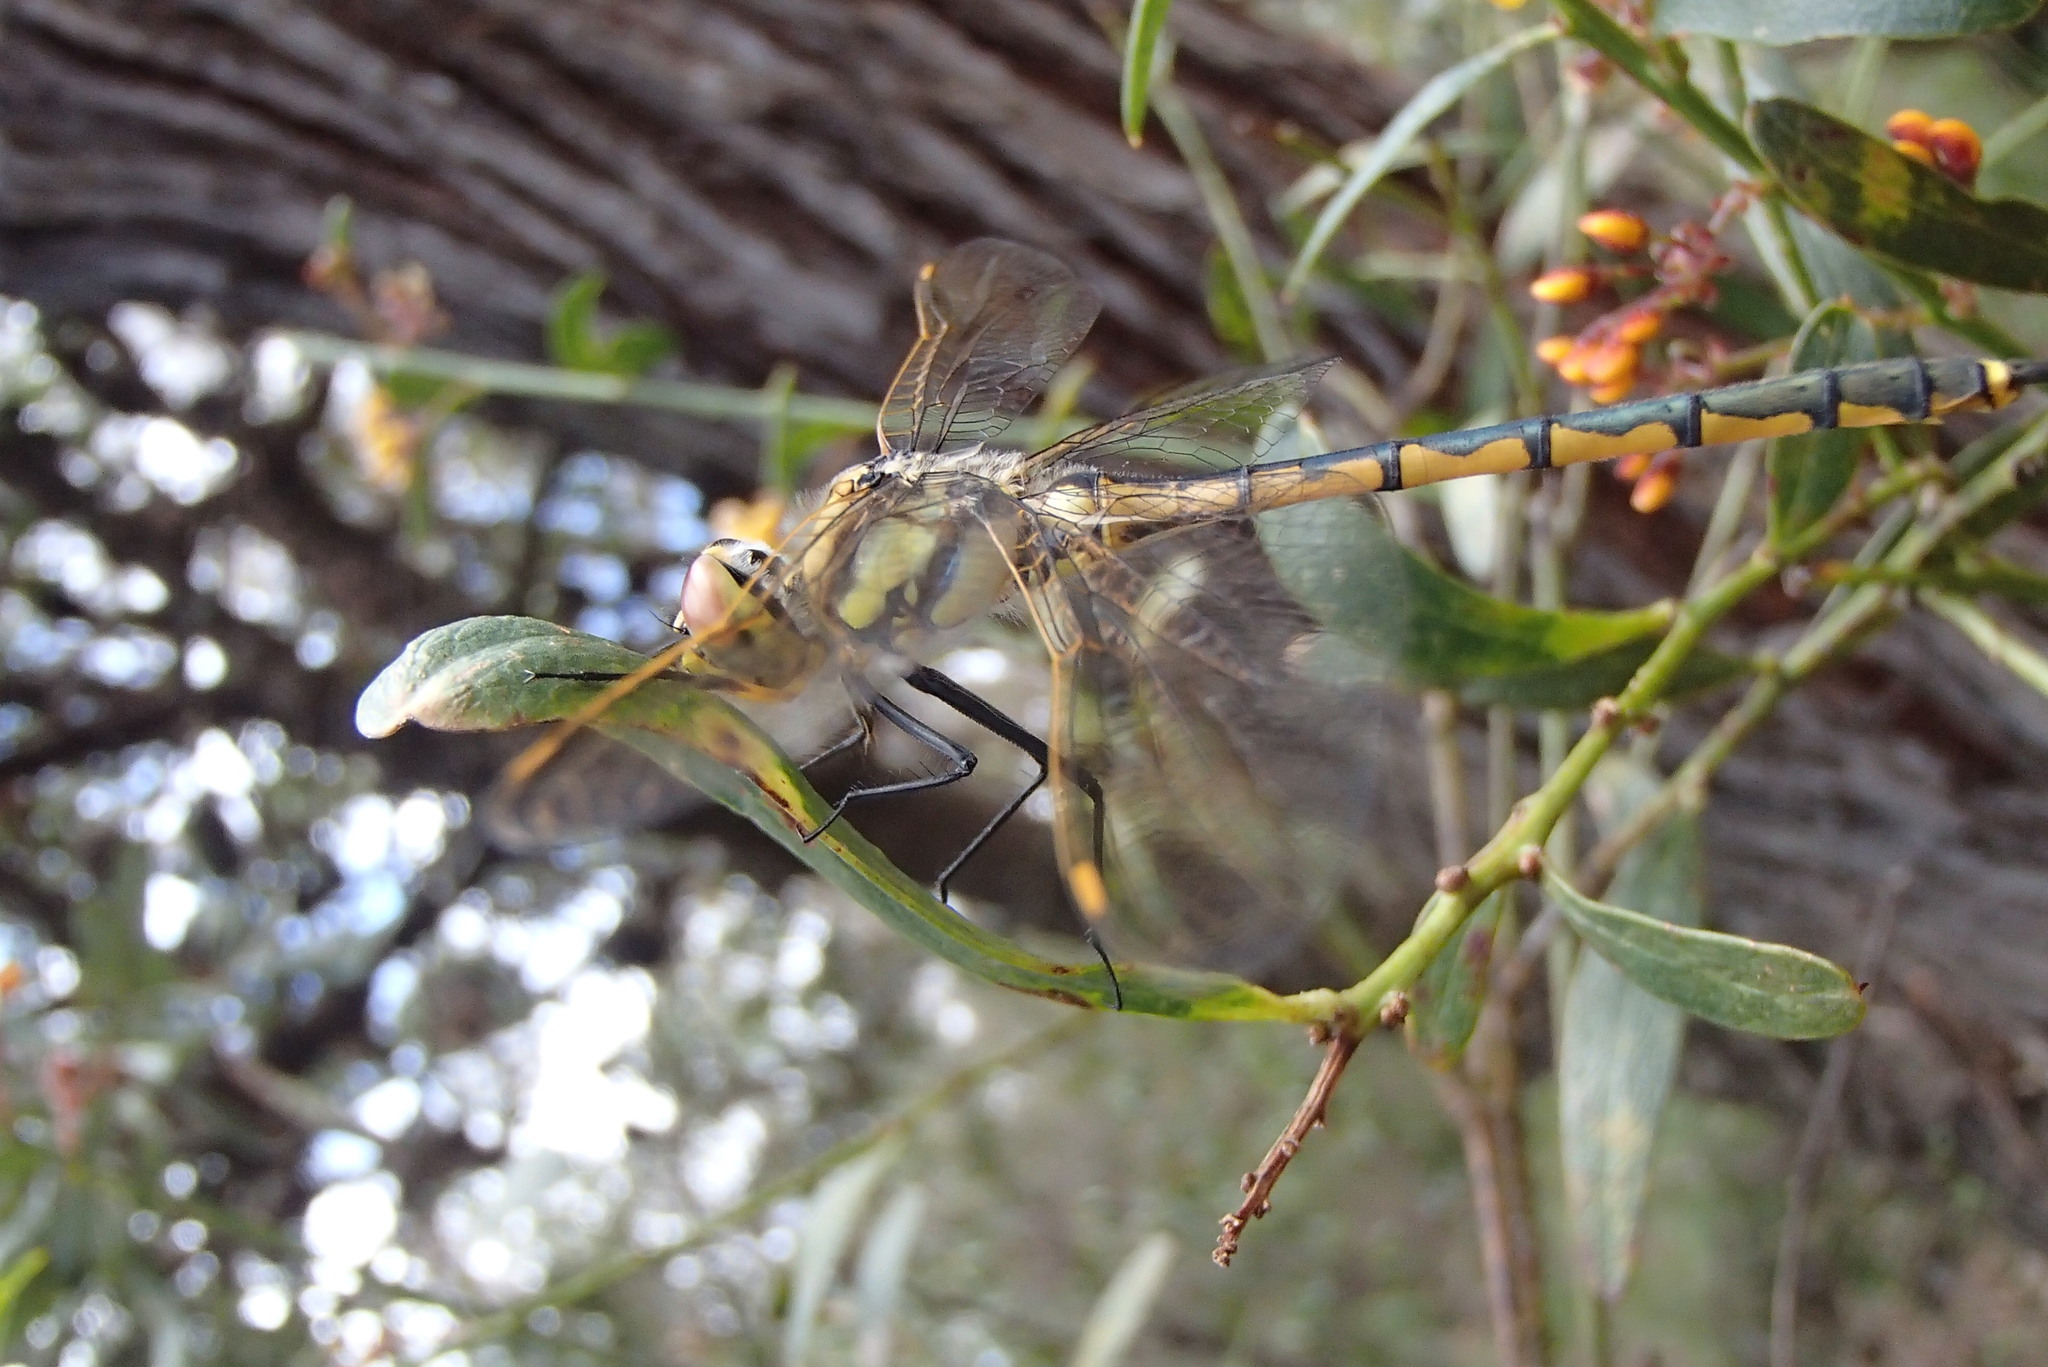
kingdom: Animalia
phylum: Arthropoda
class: Insecta
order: Odonata
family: Corduliidae
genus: Hemicordulia
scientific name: Hemicordulia tau
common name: Tau emerald
